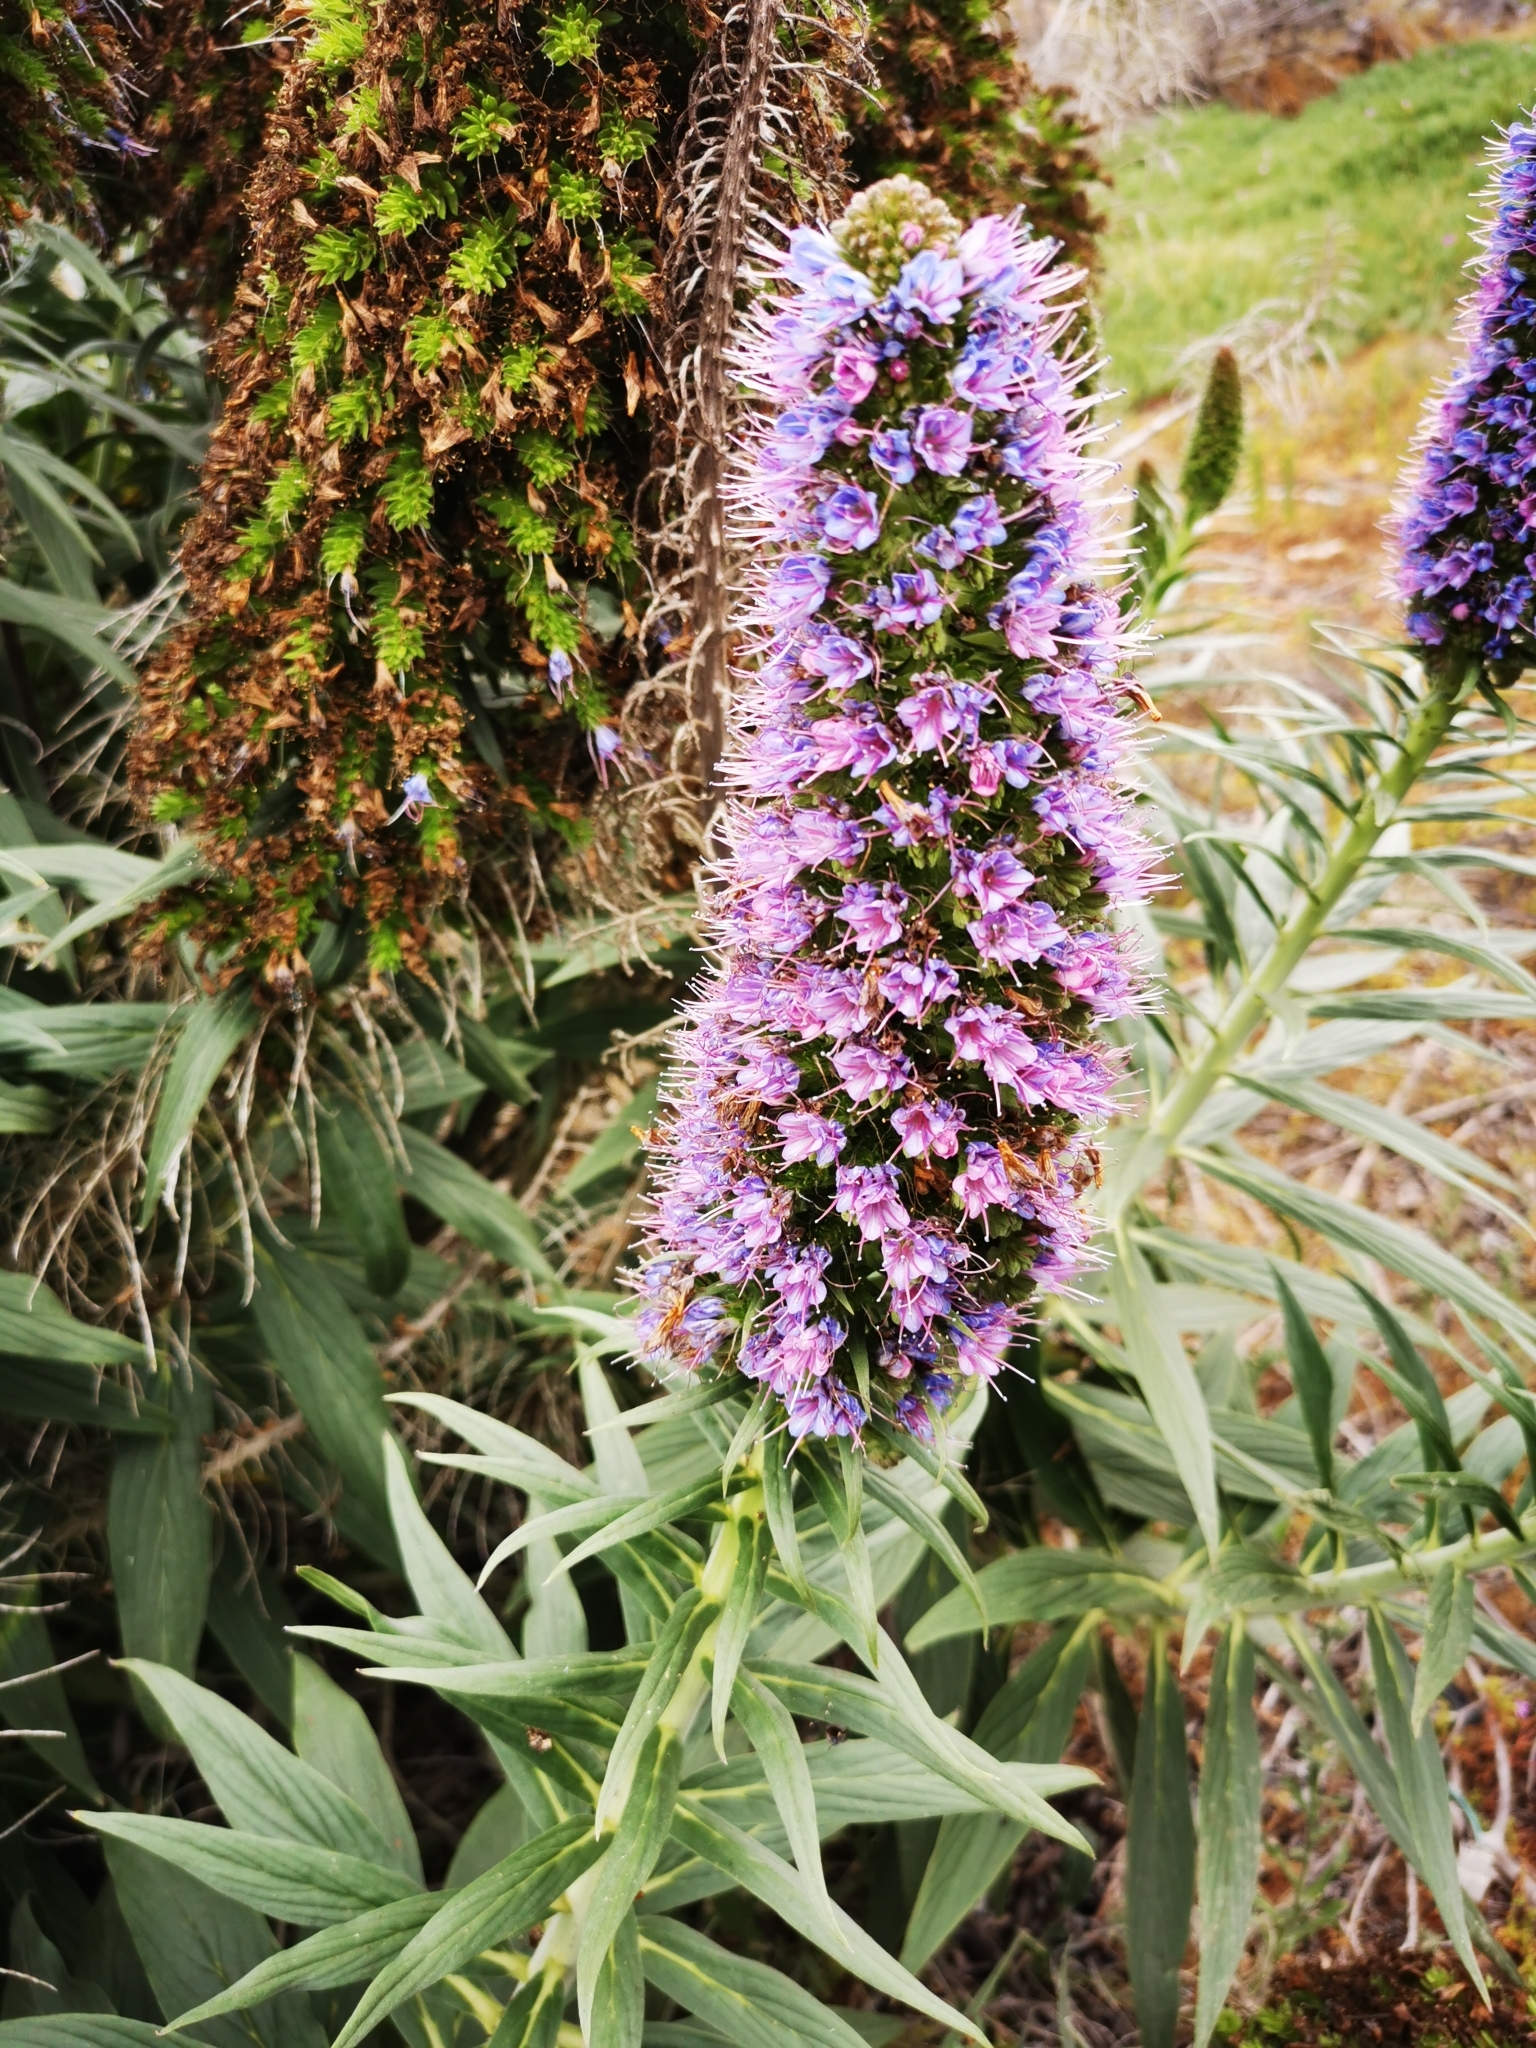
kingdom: Plantae
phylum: Tracheophyta
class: Magnoliopsida
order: Boraginales
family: Boraginaceae
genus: Echium
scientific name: Echium candicans
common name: Pride of madeira
